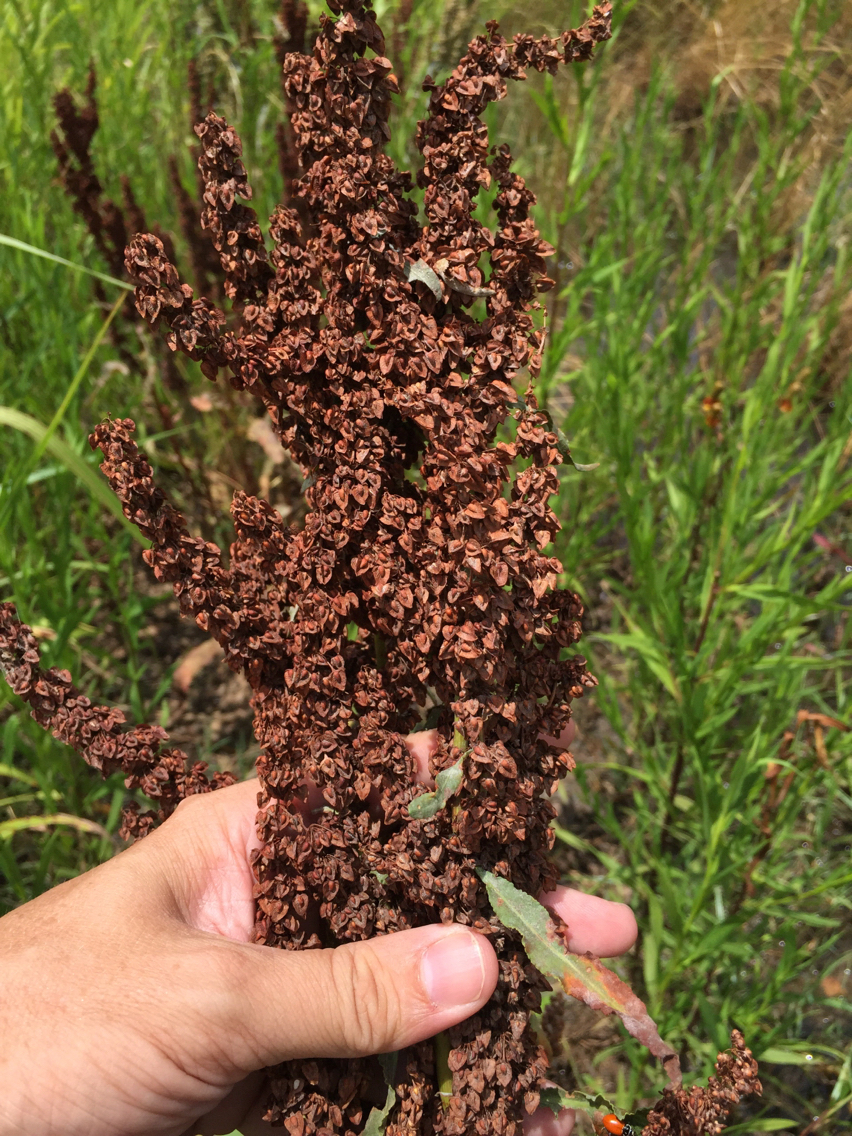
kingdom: Plantae
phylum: Tracheophyta
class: Magnoliopsida
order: Caryophyllales
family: Polygonaceae
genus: Rumex
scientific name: Rumex crispus
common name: Curled dock
